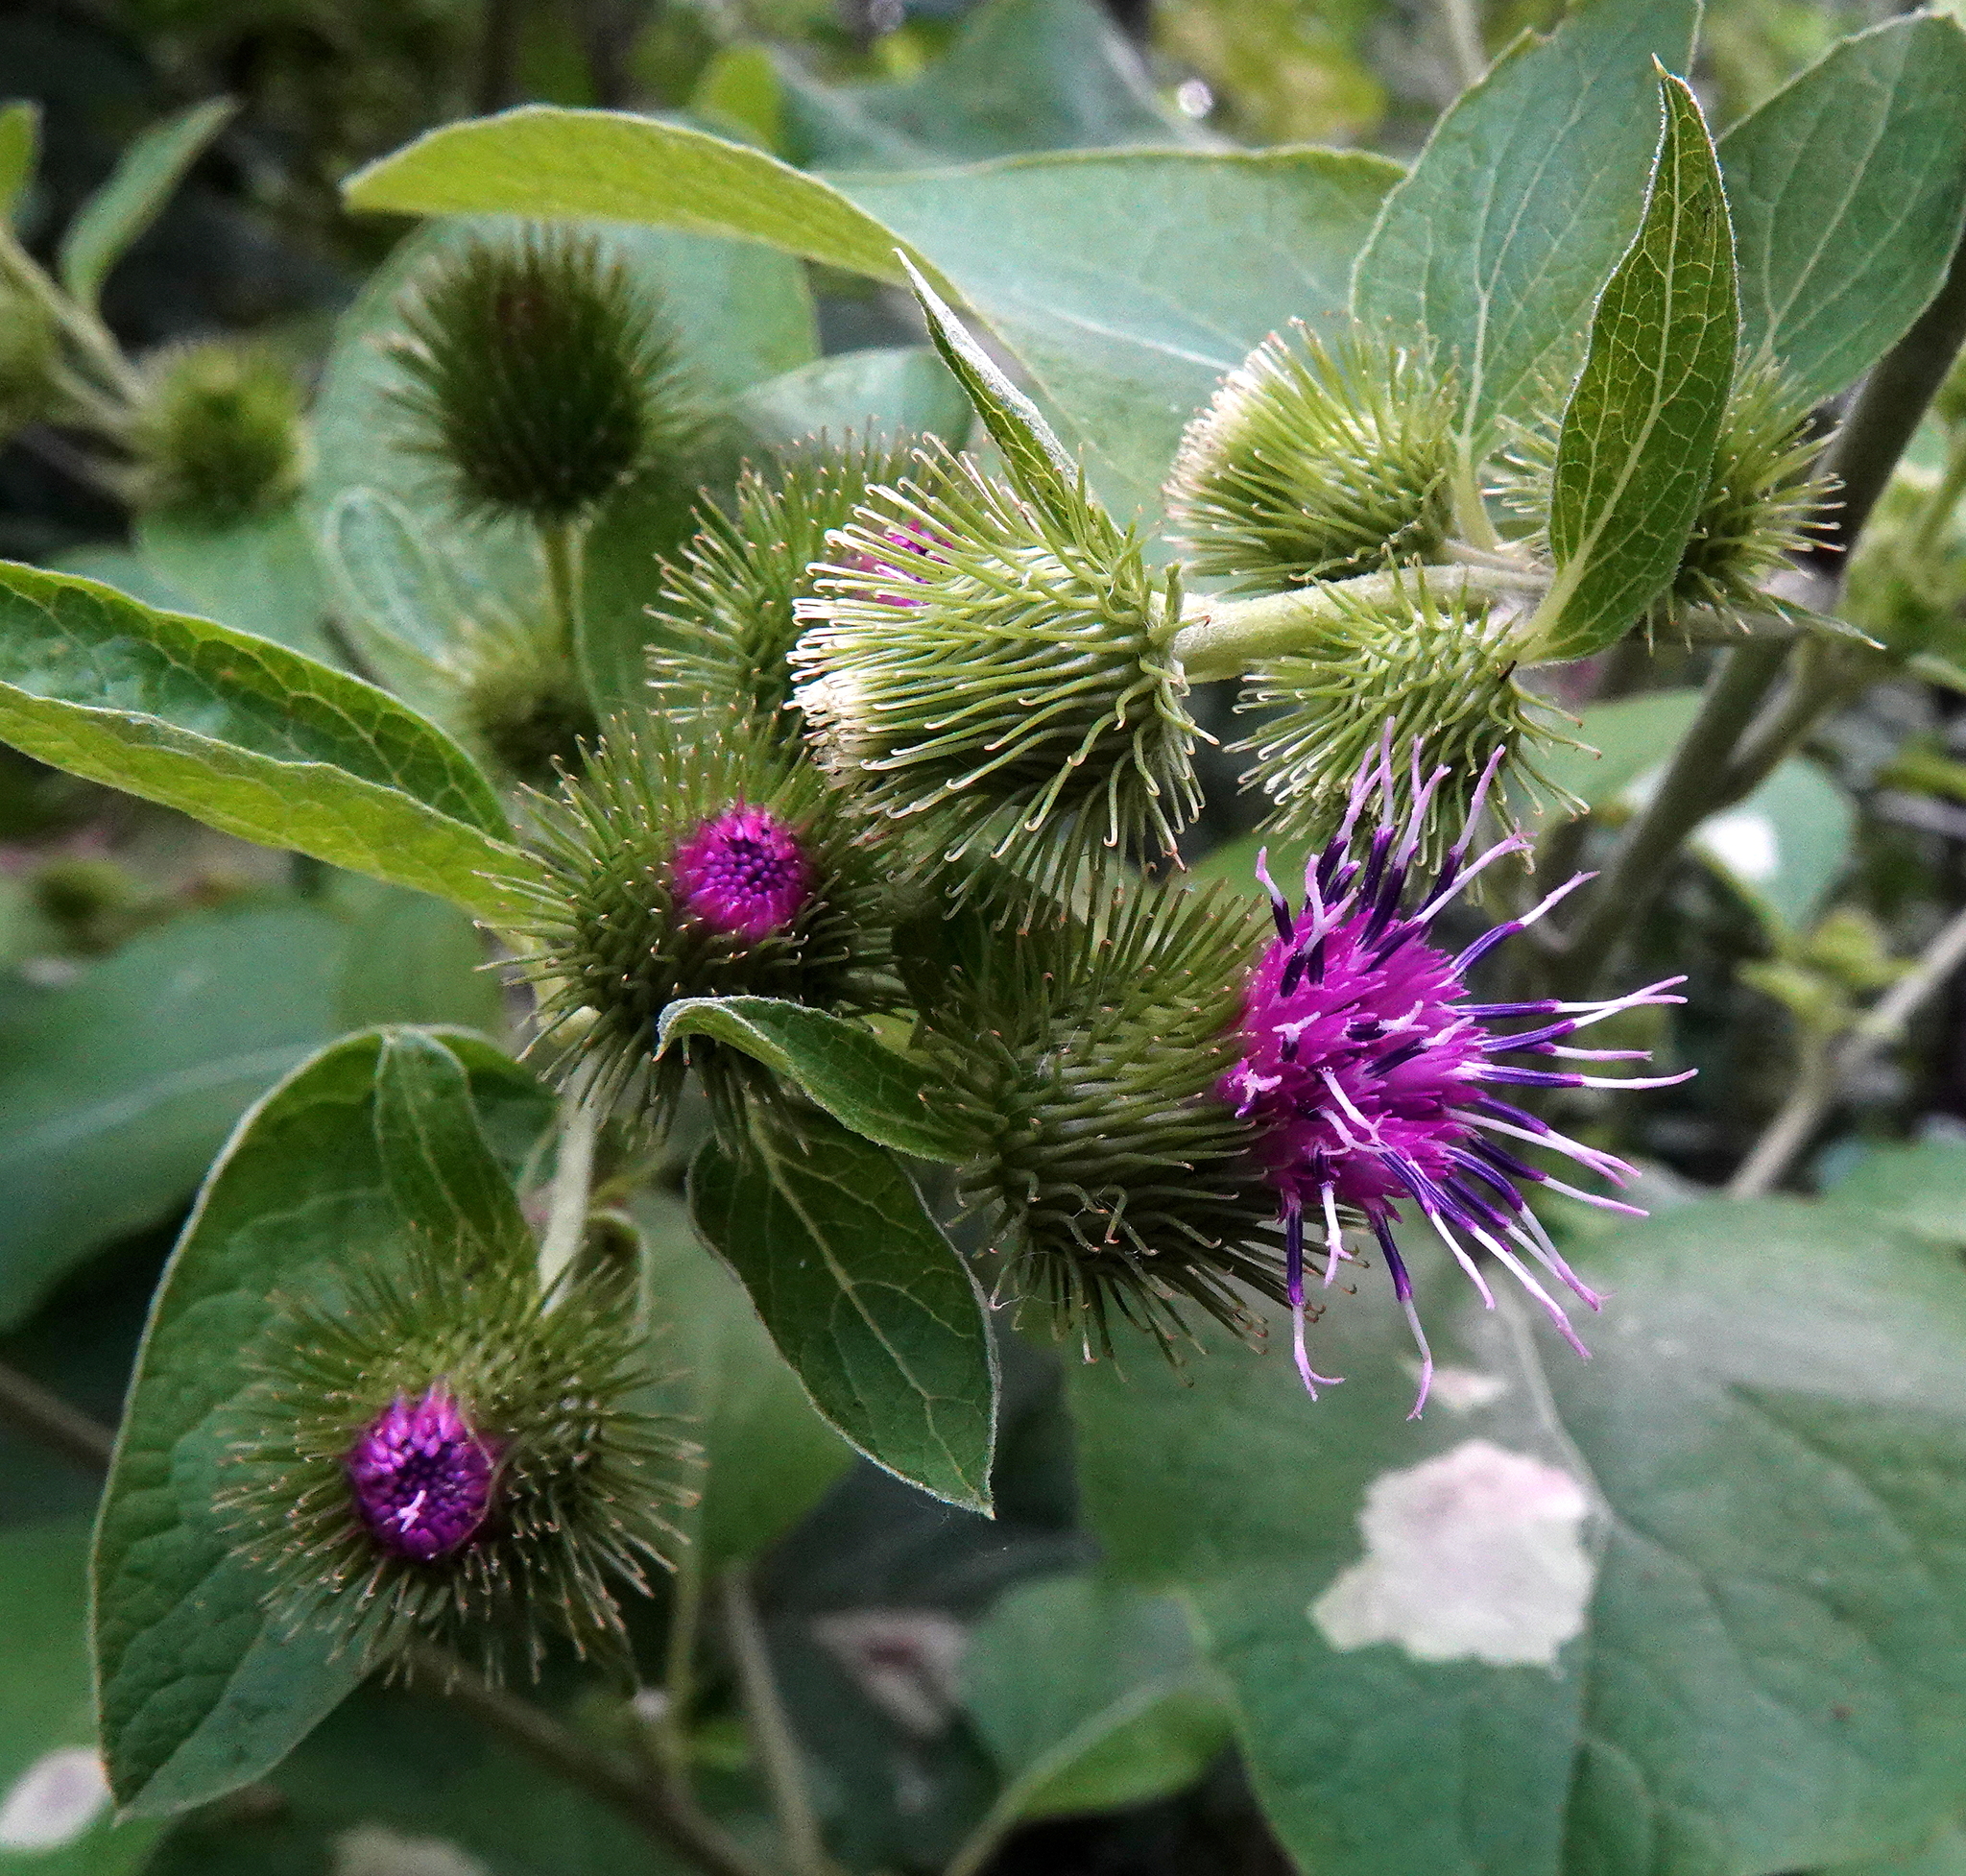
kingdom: Plantae
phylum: Tracheophyta
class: Magnoliopsida
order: Asterales
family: Asteraceae
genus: Arctium
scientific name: Arctium minus
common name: Lesser burdock
